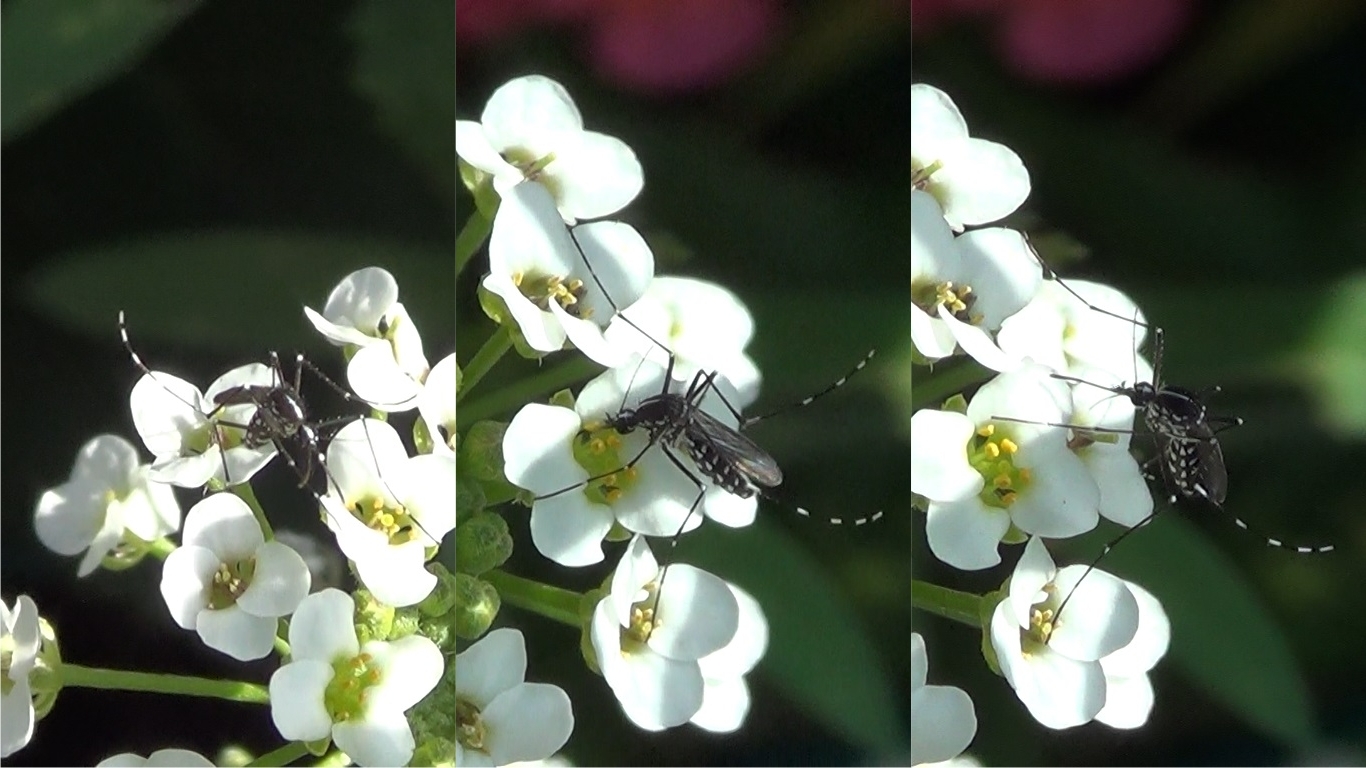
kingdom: Animalia
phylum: Arthropoda
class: Insecta
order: Diptera
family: Culicidae
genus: Aedes
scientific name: Aedes albopictus
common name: Tiger mosquito
